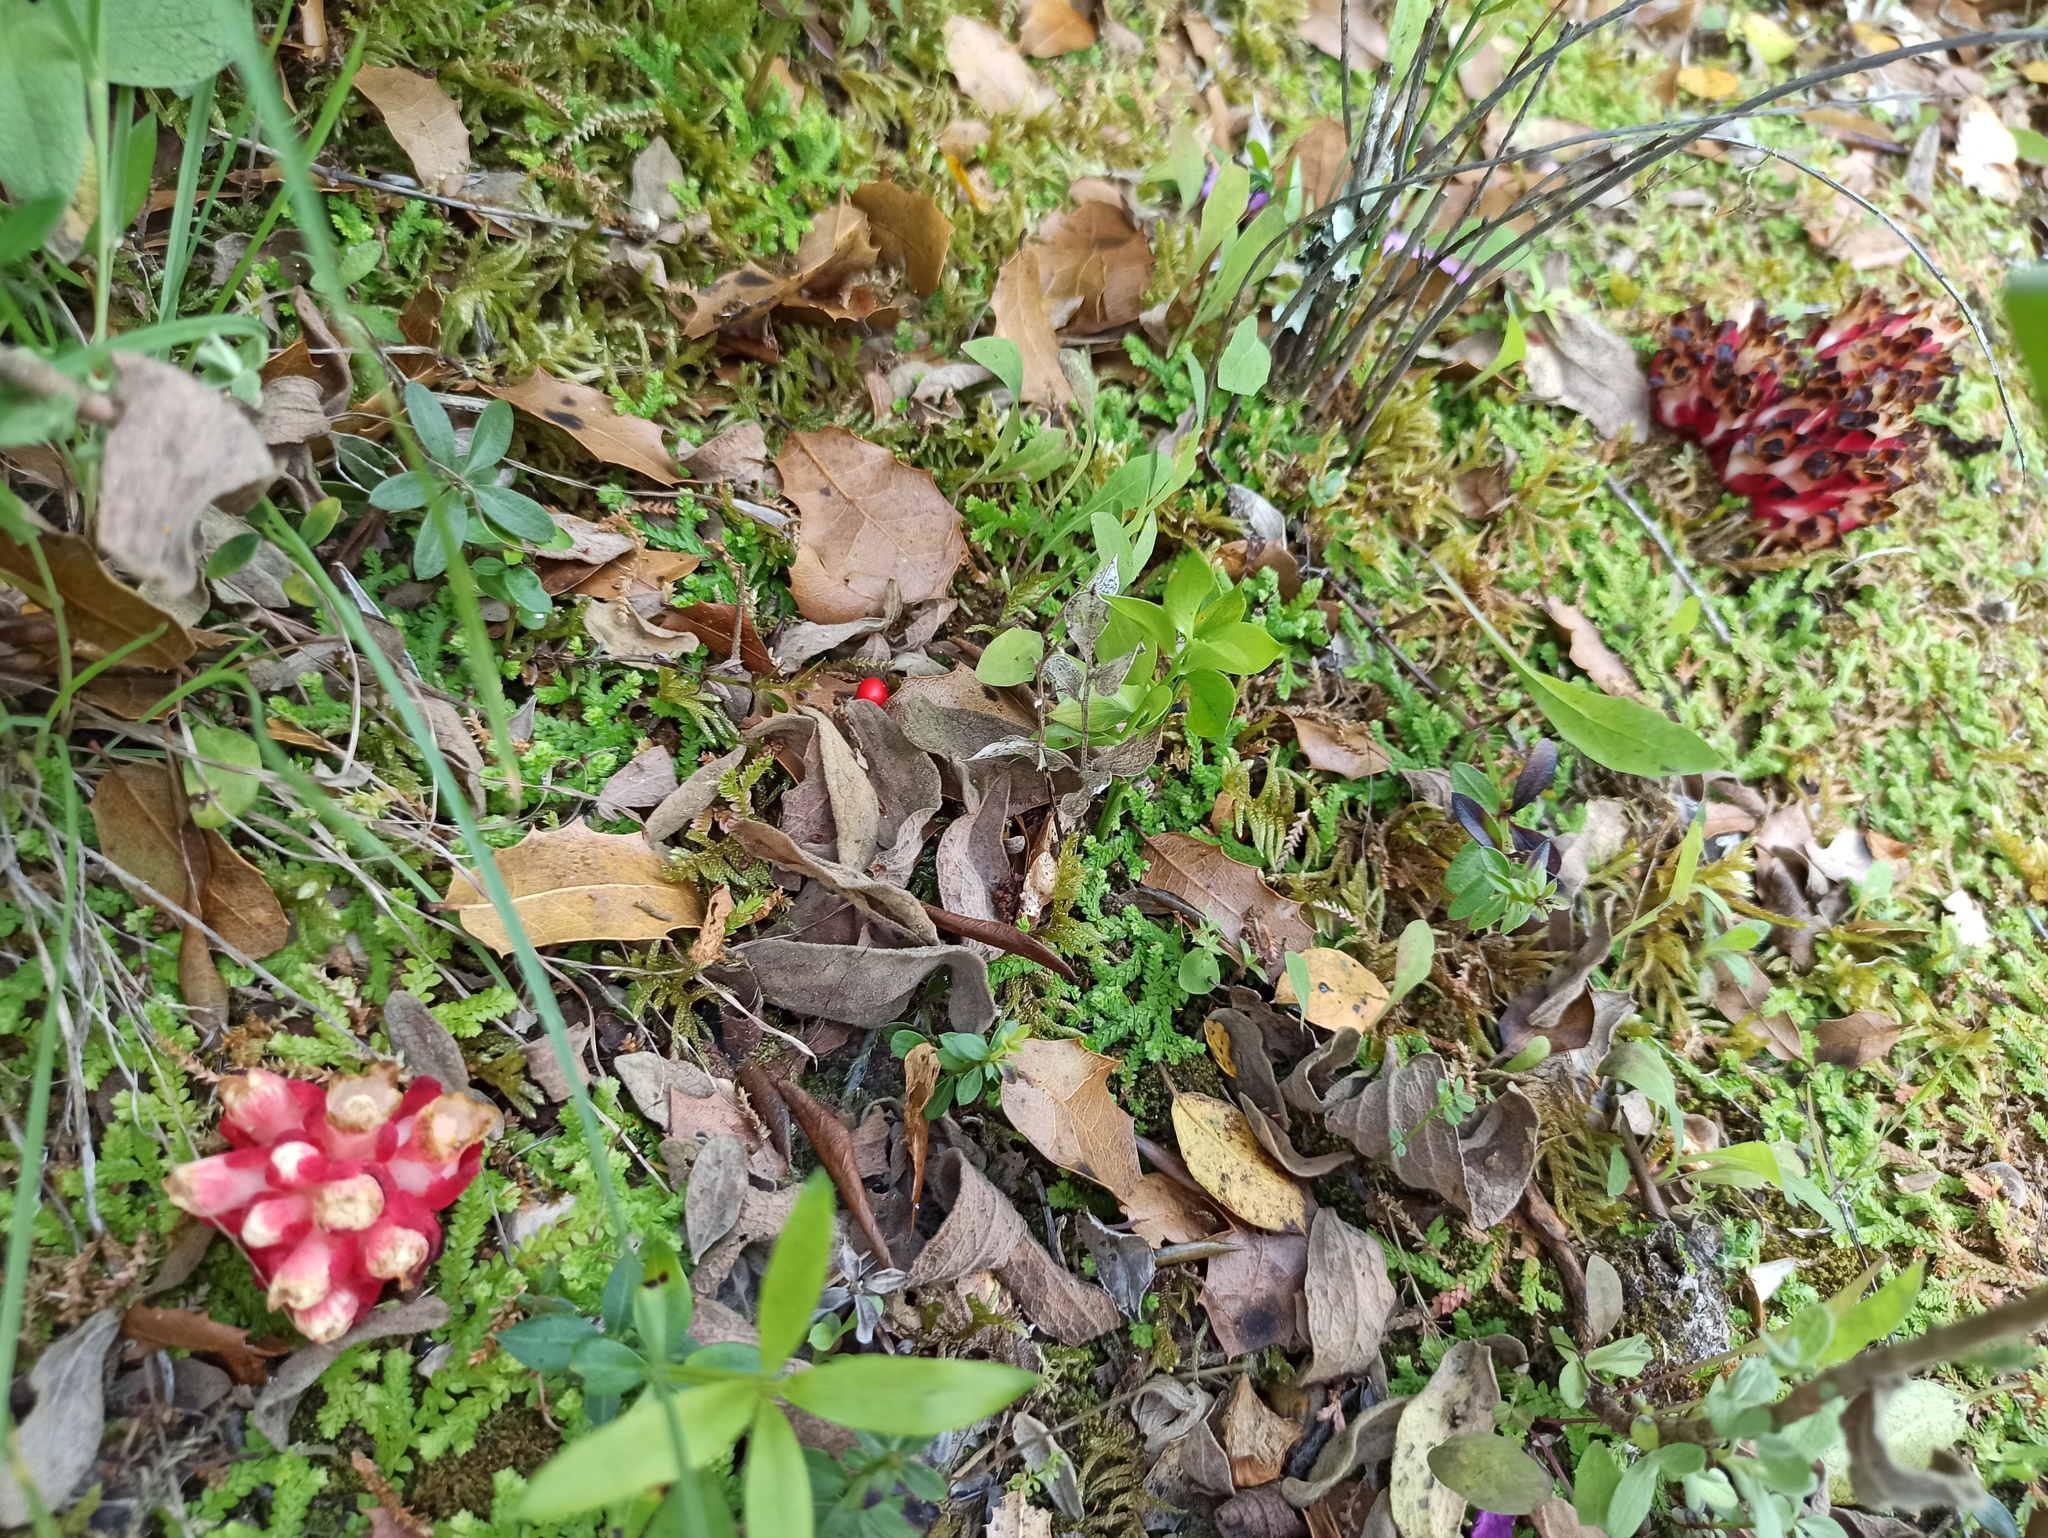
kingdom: Plantae
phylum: Tracheophyta
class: Magnoliopsida
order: Malvales
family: Cytinaceae
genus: Cytinus
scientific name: Cytinus ruber
